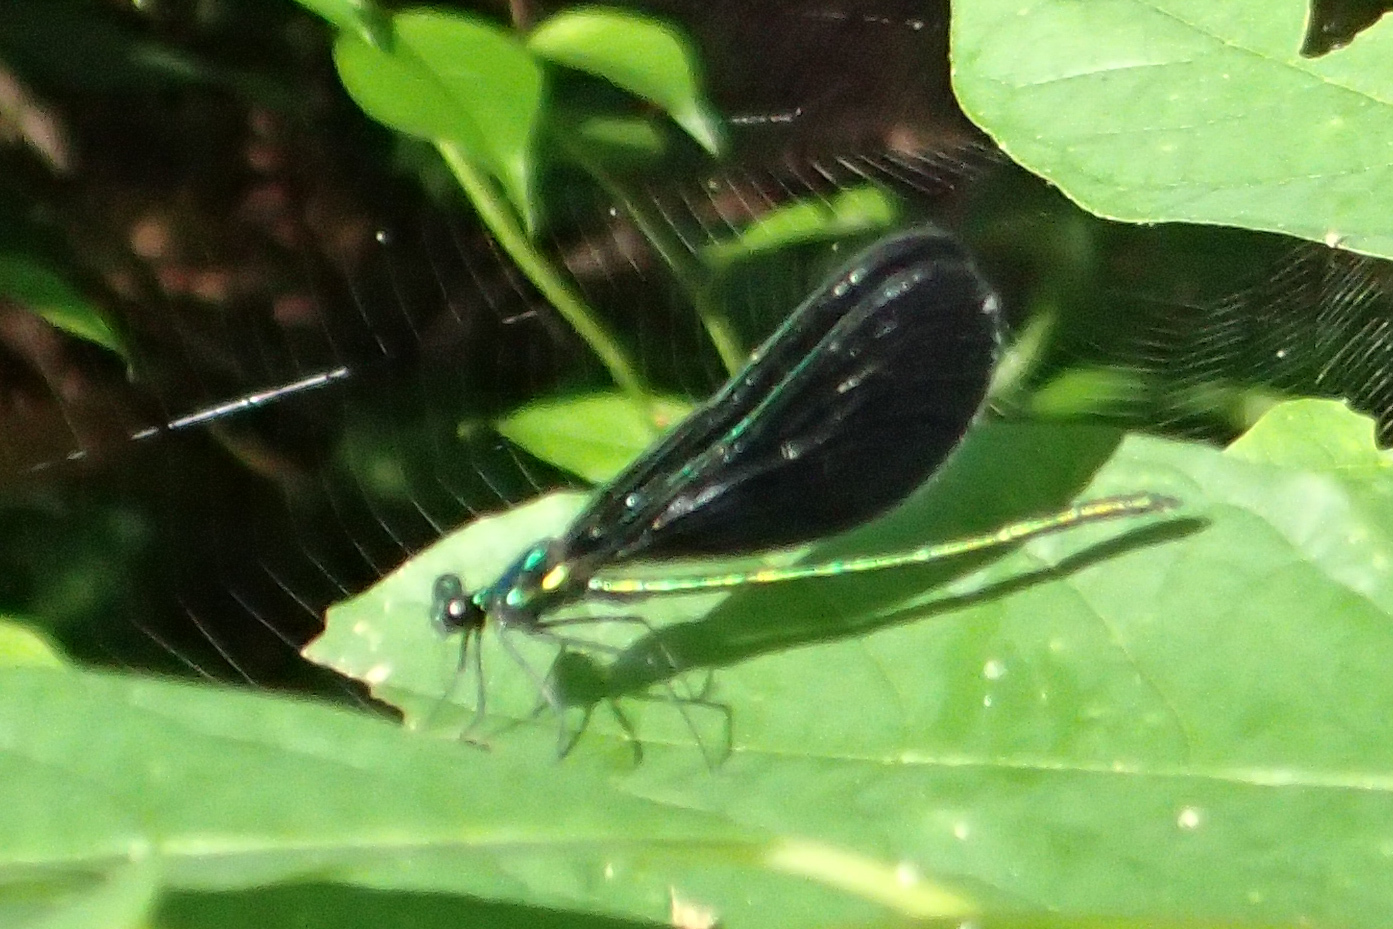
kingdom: Animalia
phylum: Arthropoda
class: Insecta
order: Odonata
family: Calopterygidae
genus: Calopteryx
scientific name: Calopteryx maculata
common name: Ebony jewelwing
